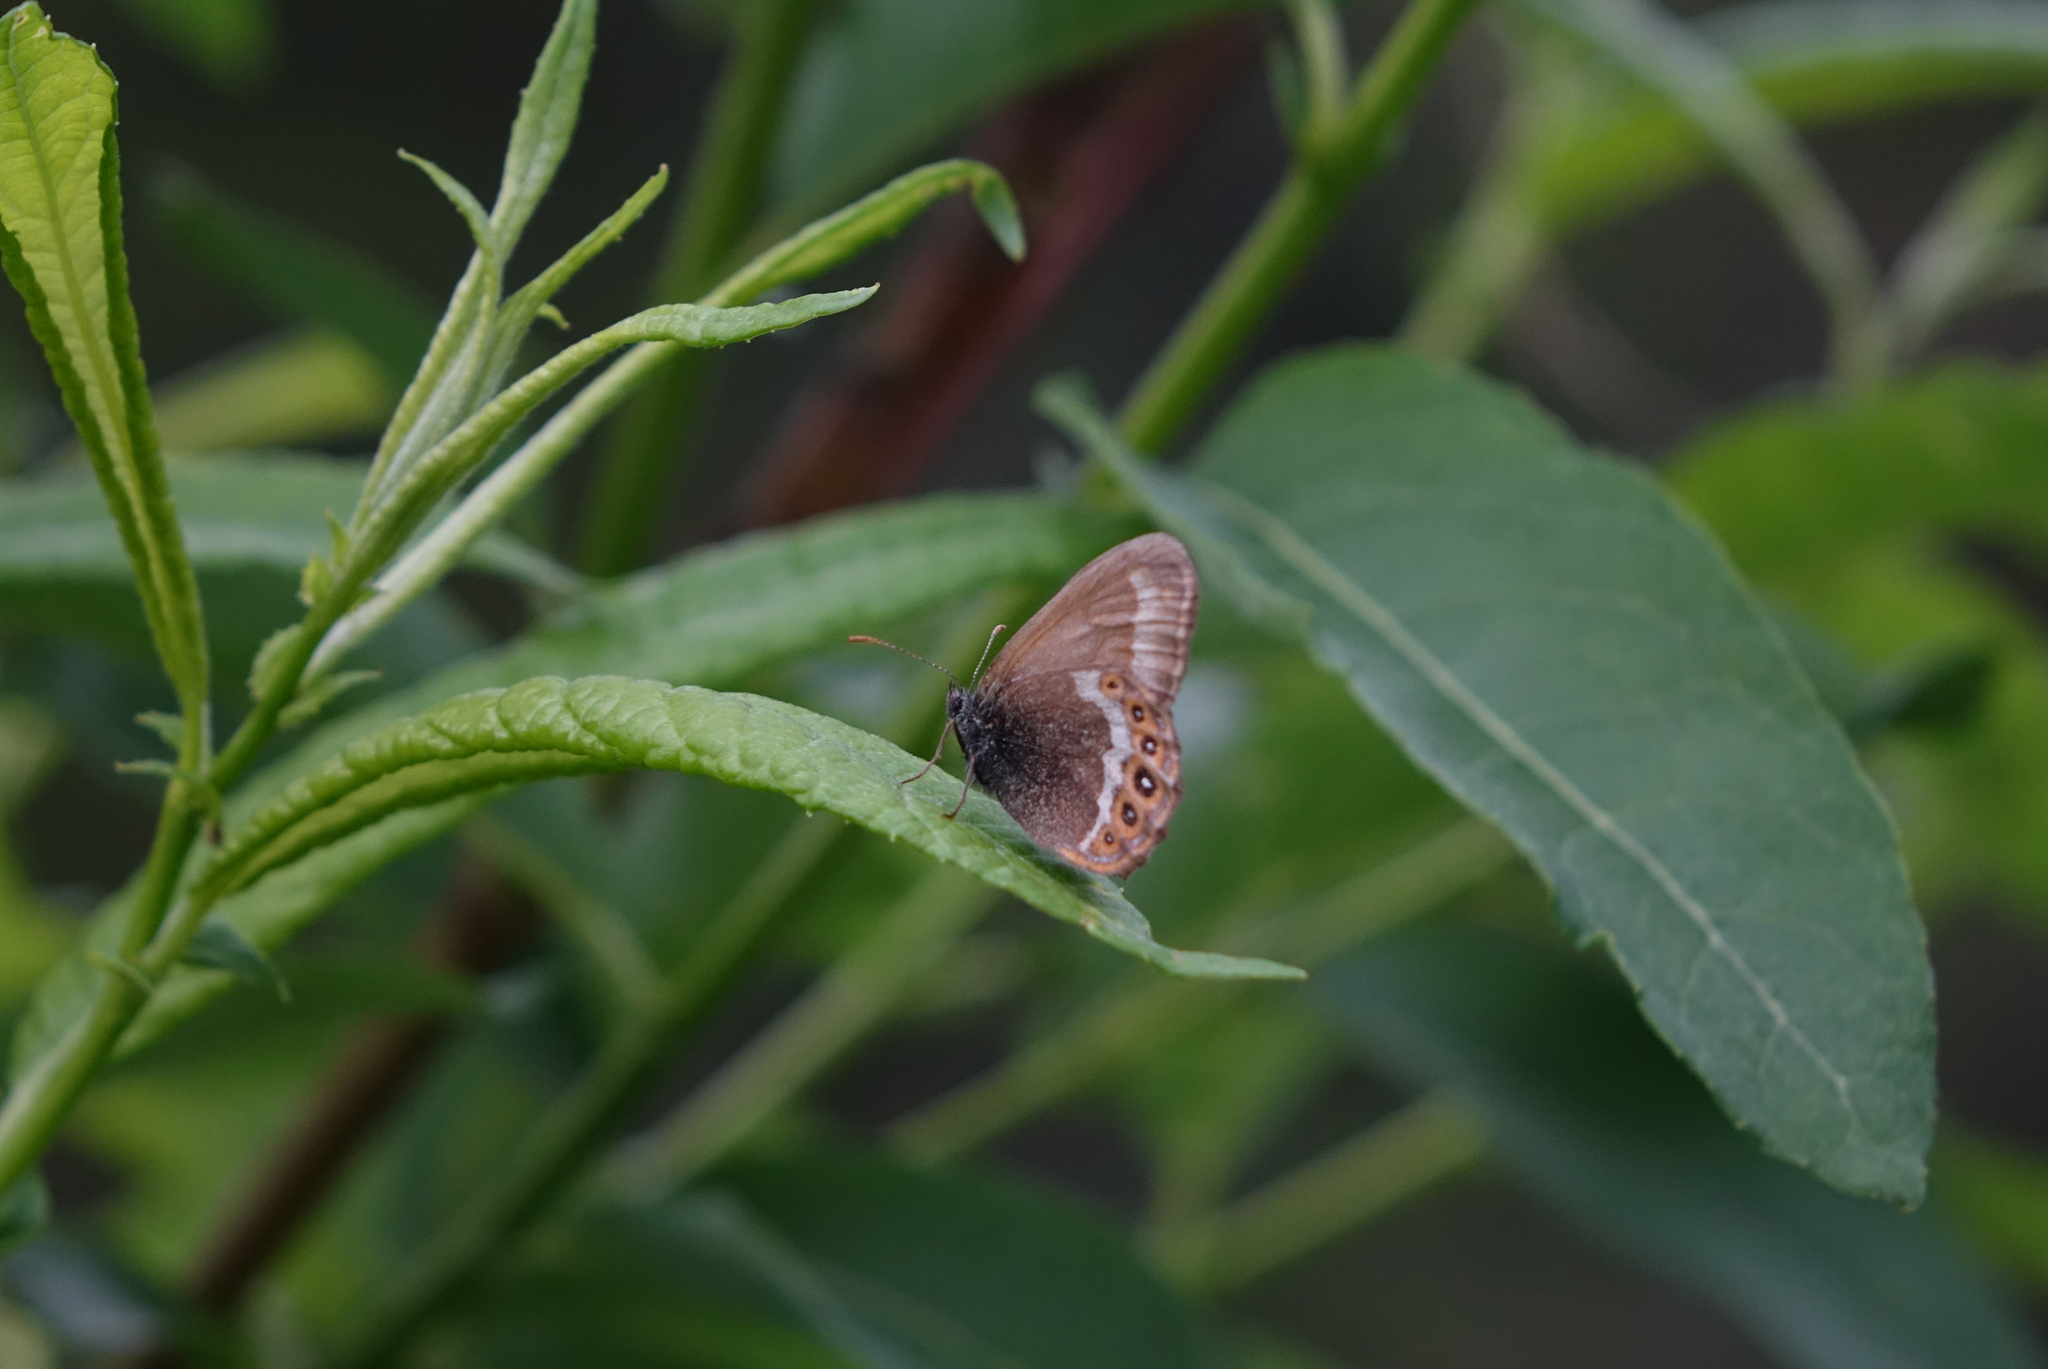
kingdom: Animalia
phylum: Arthropoda
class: Insecta
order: Lepidoptera
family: Nymphalidae
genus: Coenonympha
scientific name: Coenonympha hero
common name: Scarce heath
